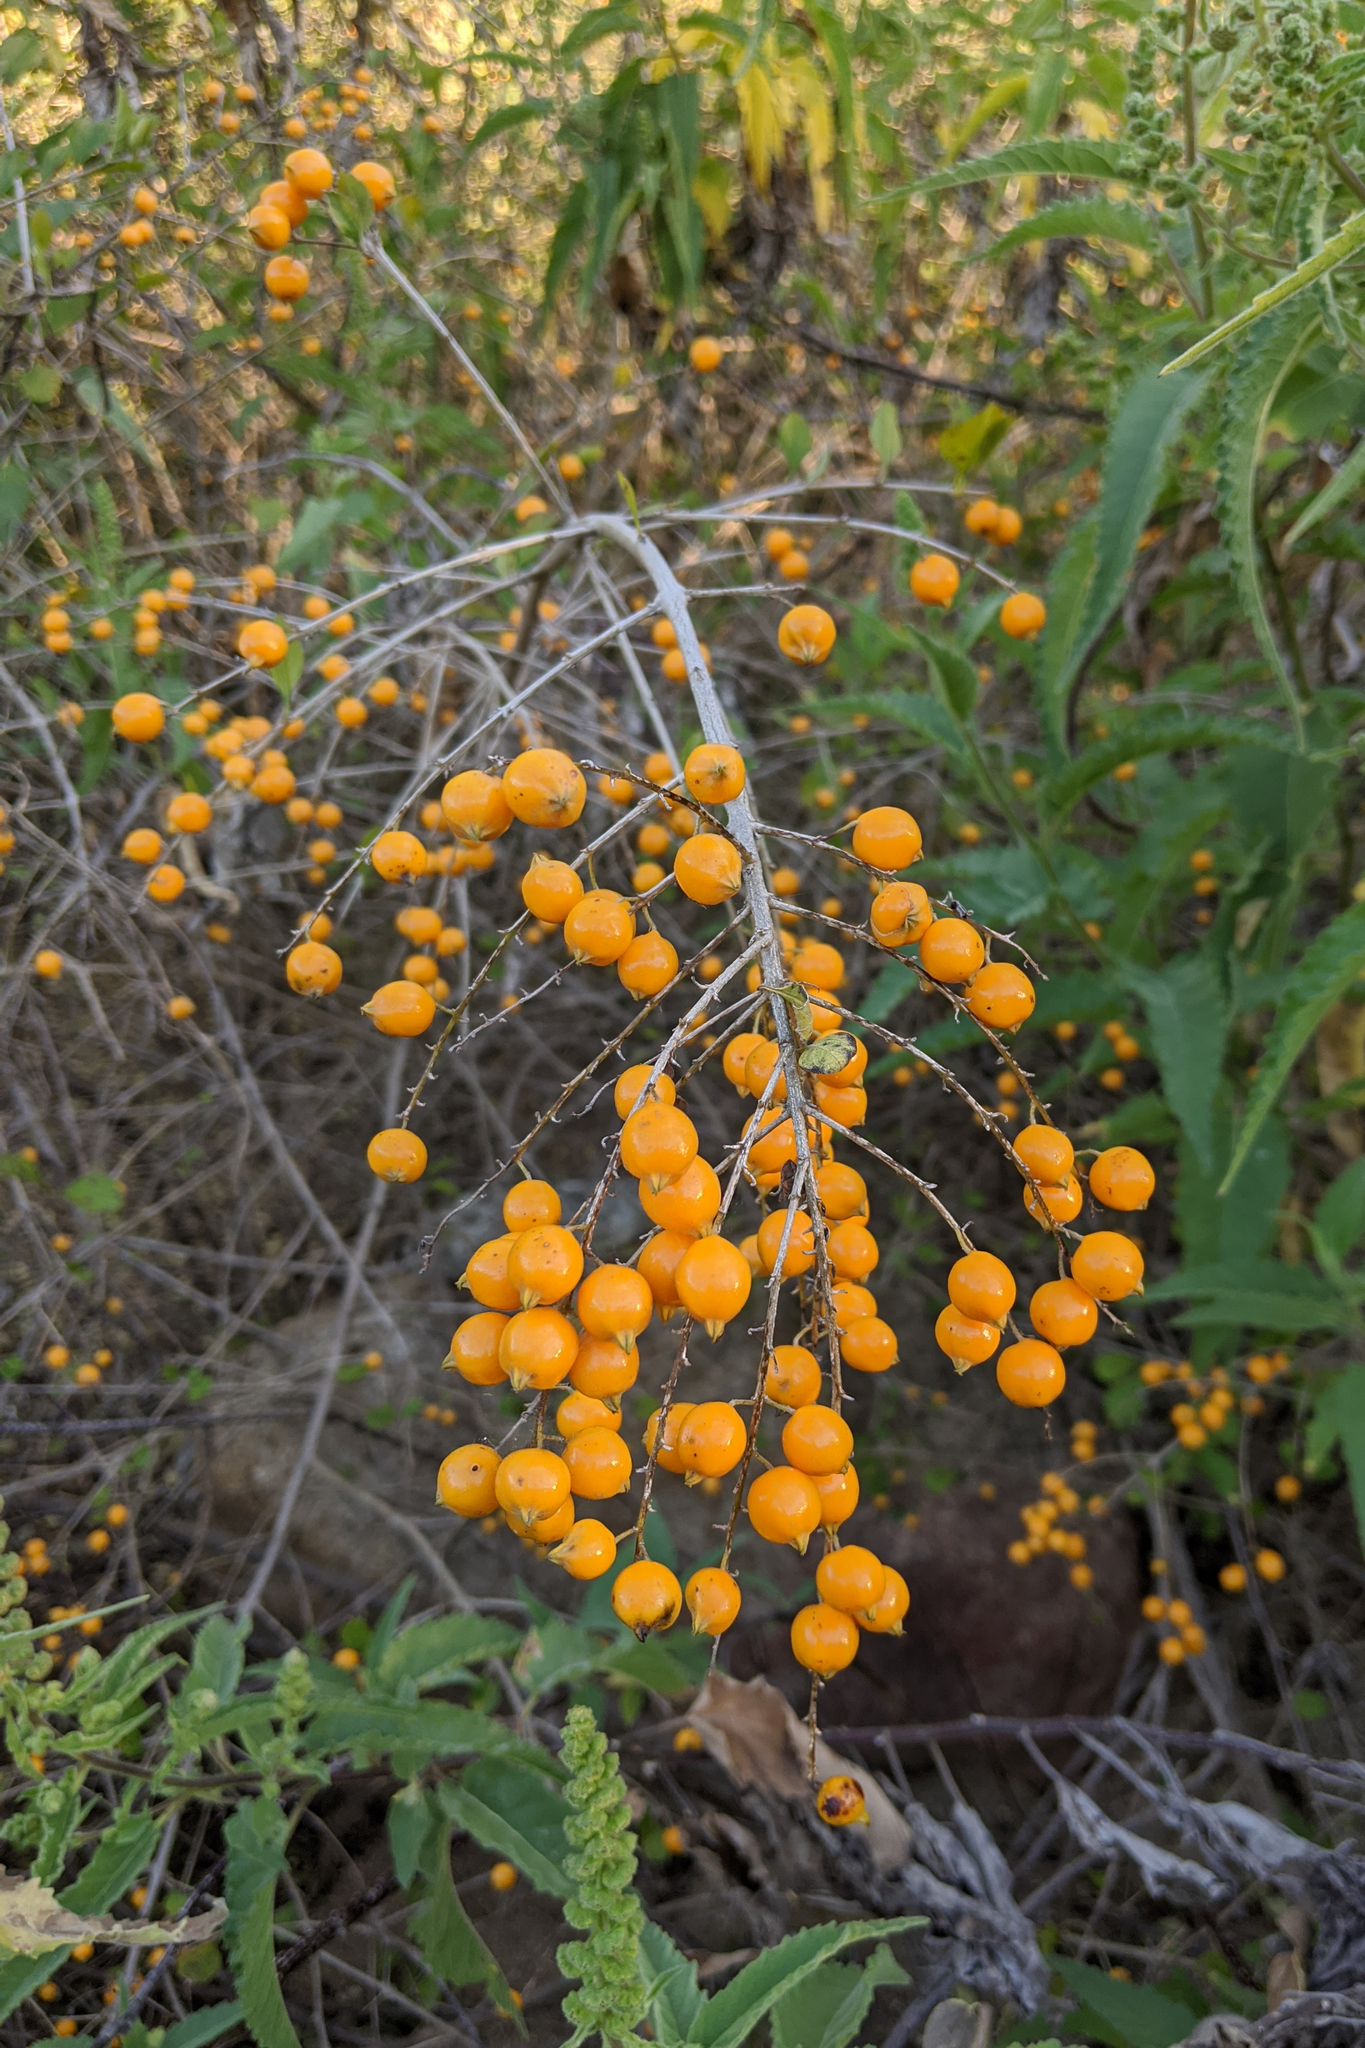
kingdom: Plantae
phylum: Tracheophyta
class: Magnoliopsida
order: Lamiales
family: Verbenaceae
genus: Duranta
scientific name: Duranta erecta
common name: Golden dewdrops
